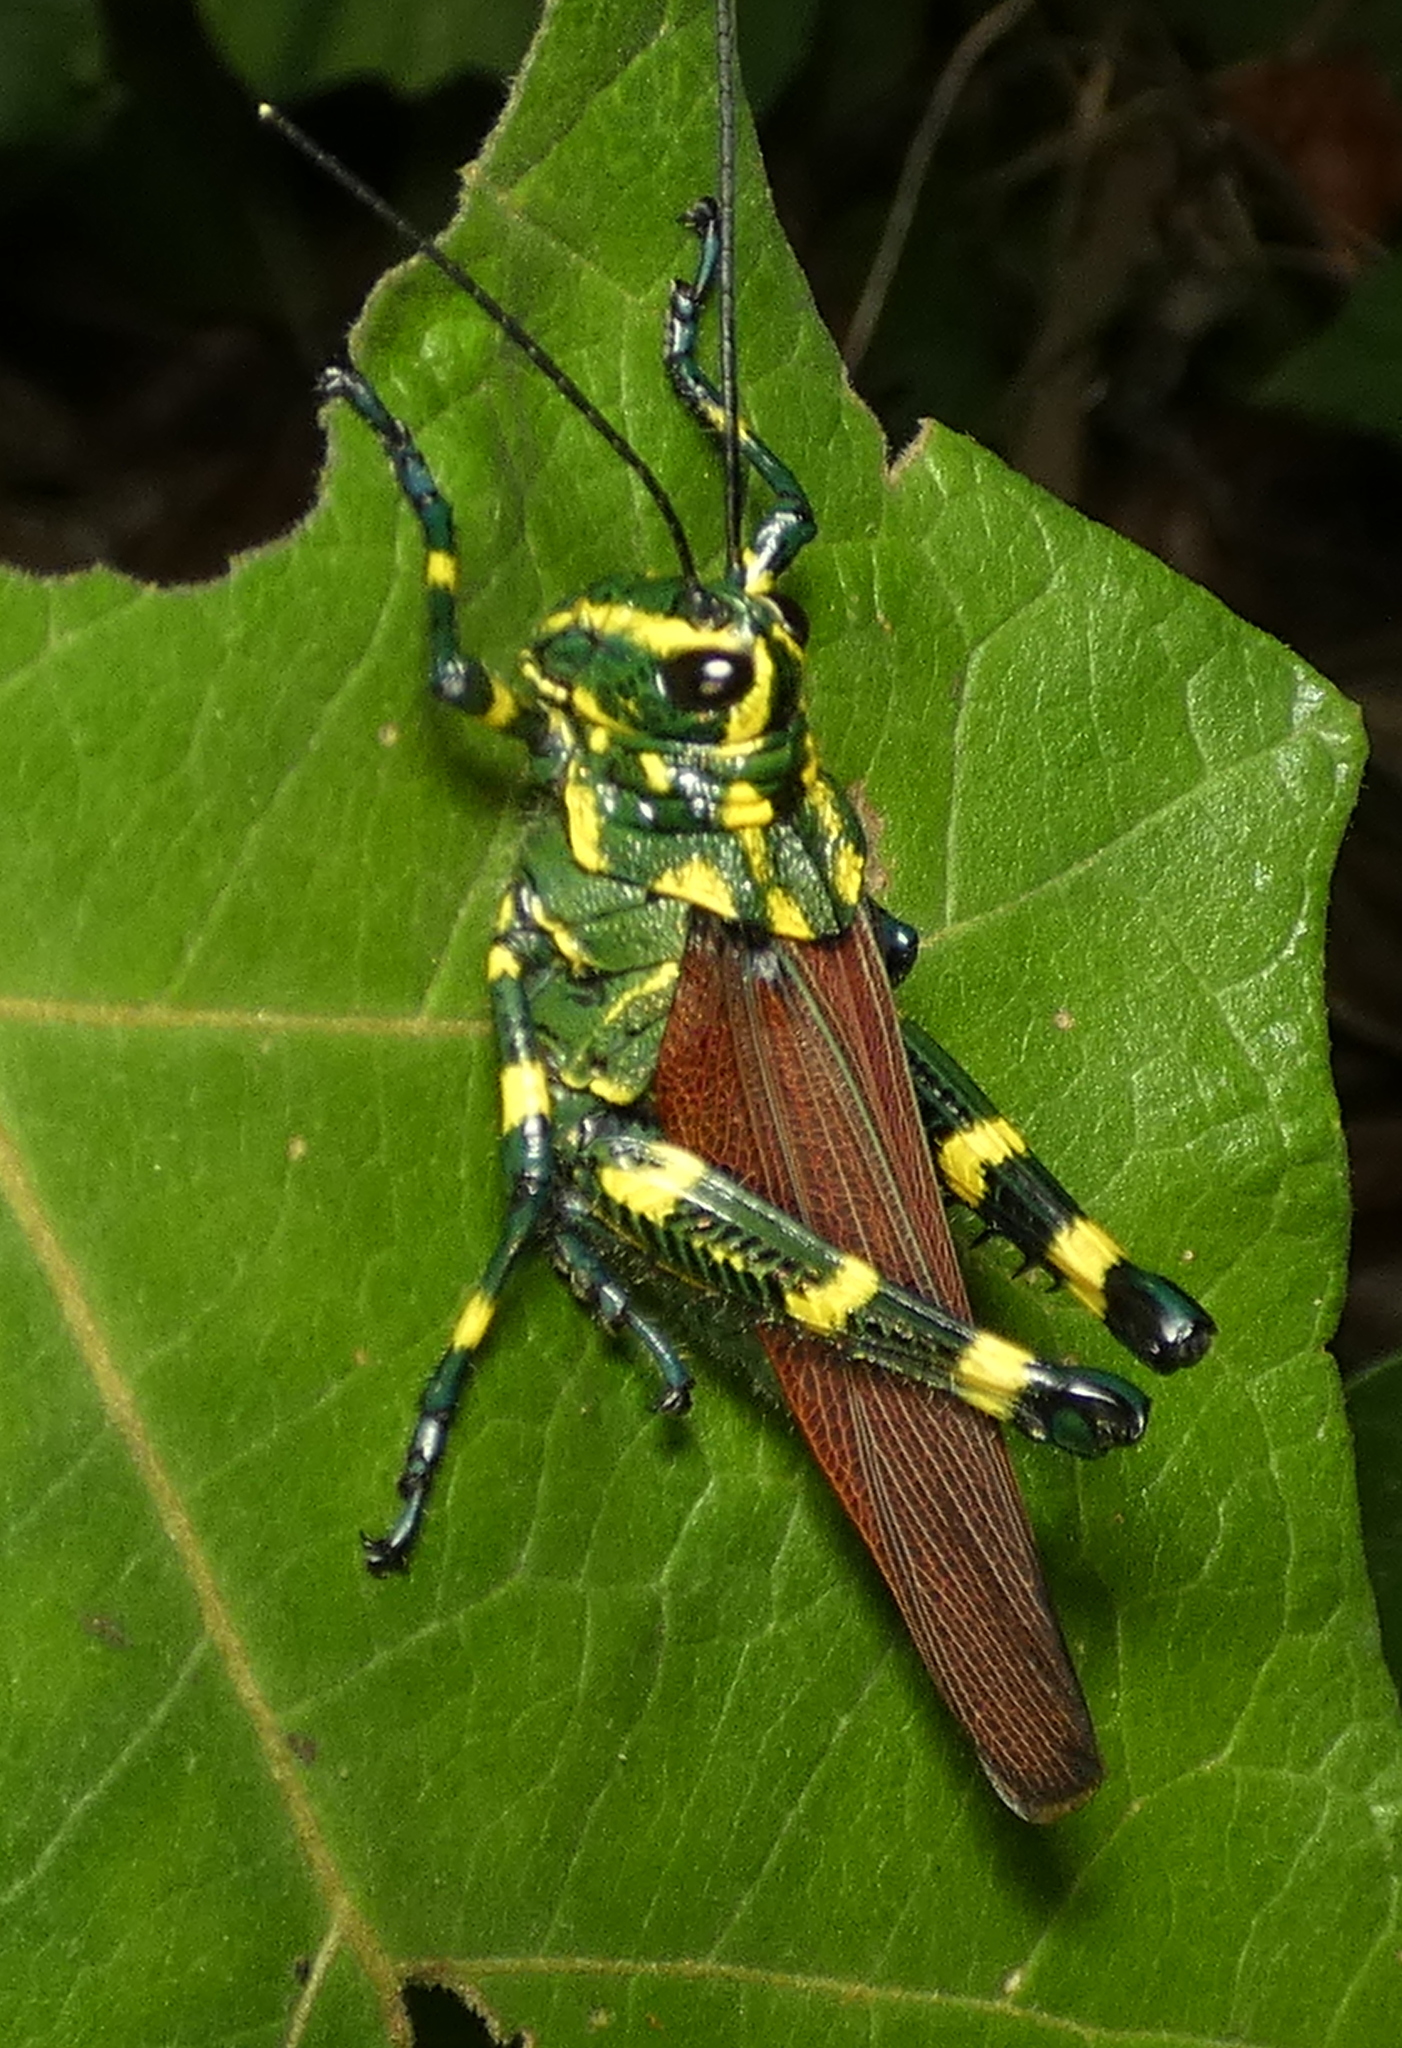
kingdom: Animalia
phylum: Arthropoda
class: Insecta
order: Orthoptera
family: Romaleidae
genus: Chromacris
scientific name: Chromacris speciosa
